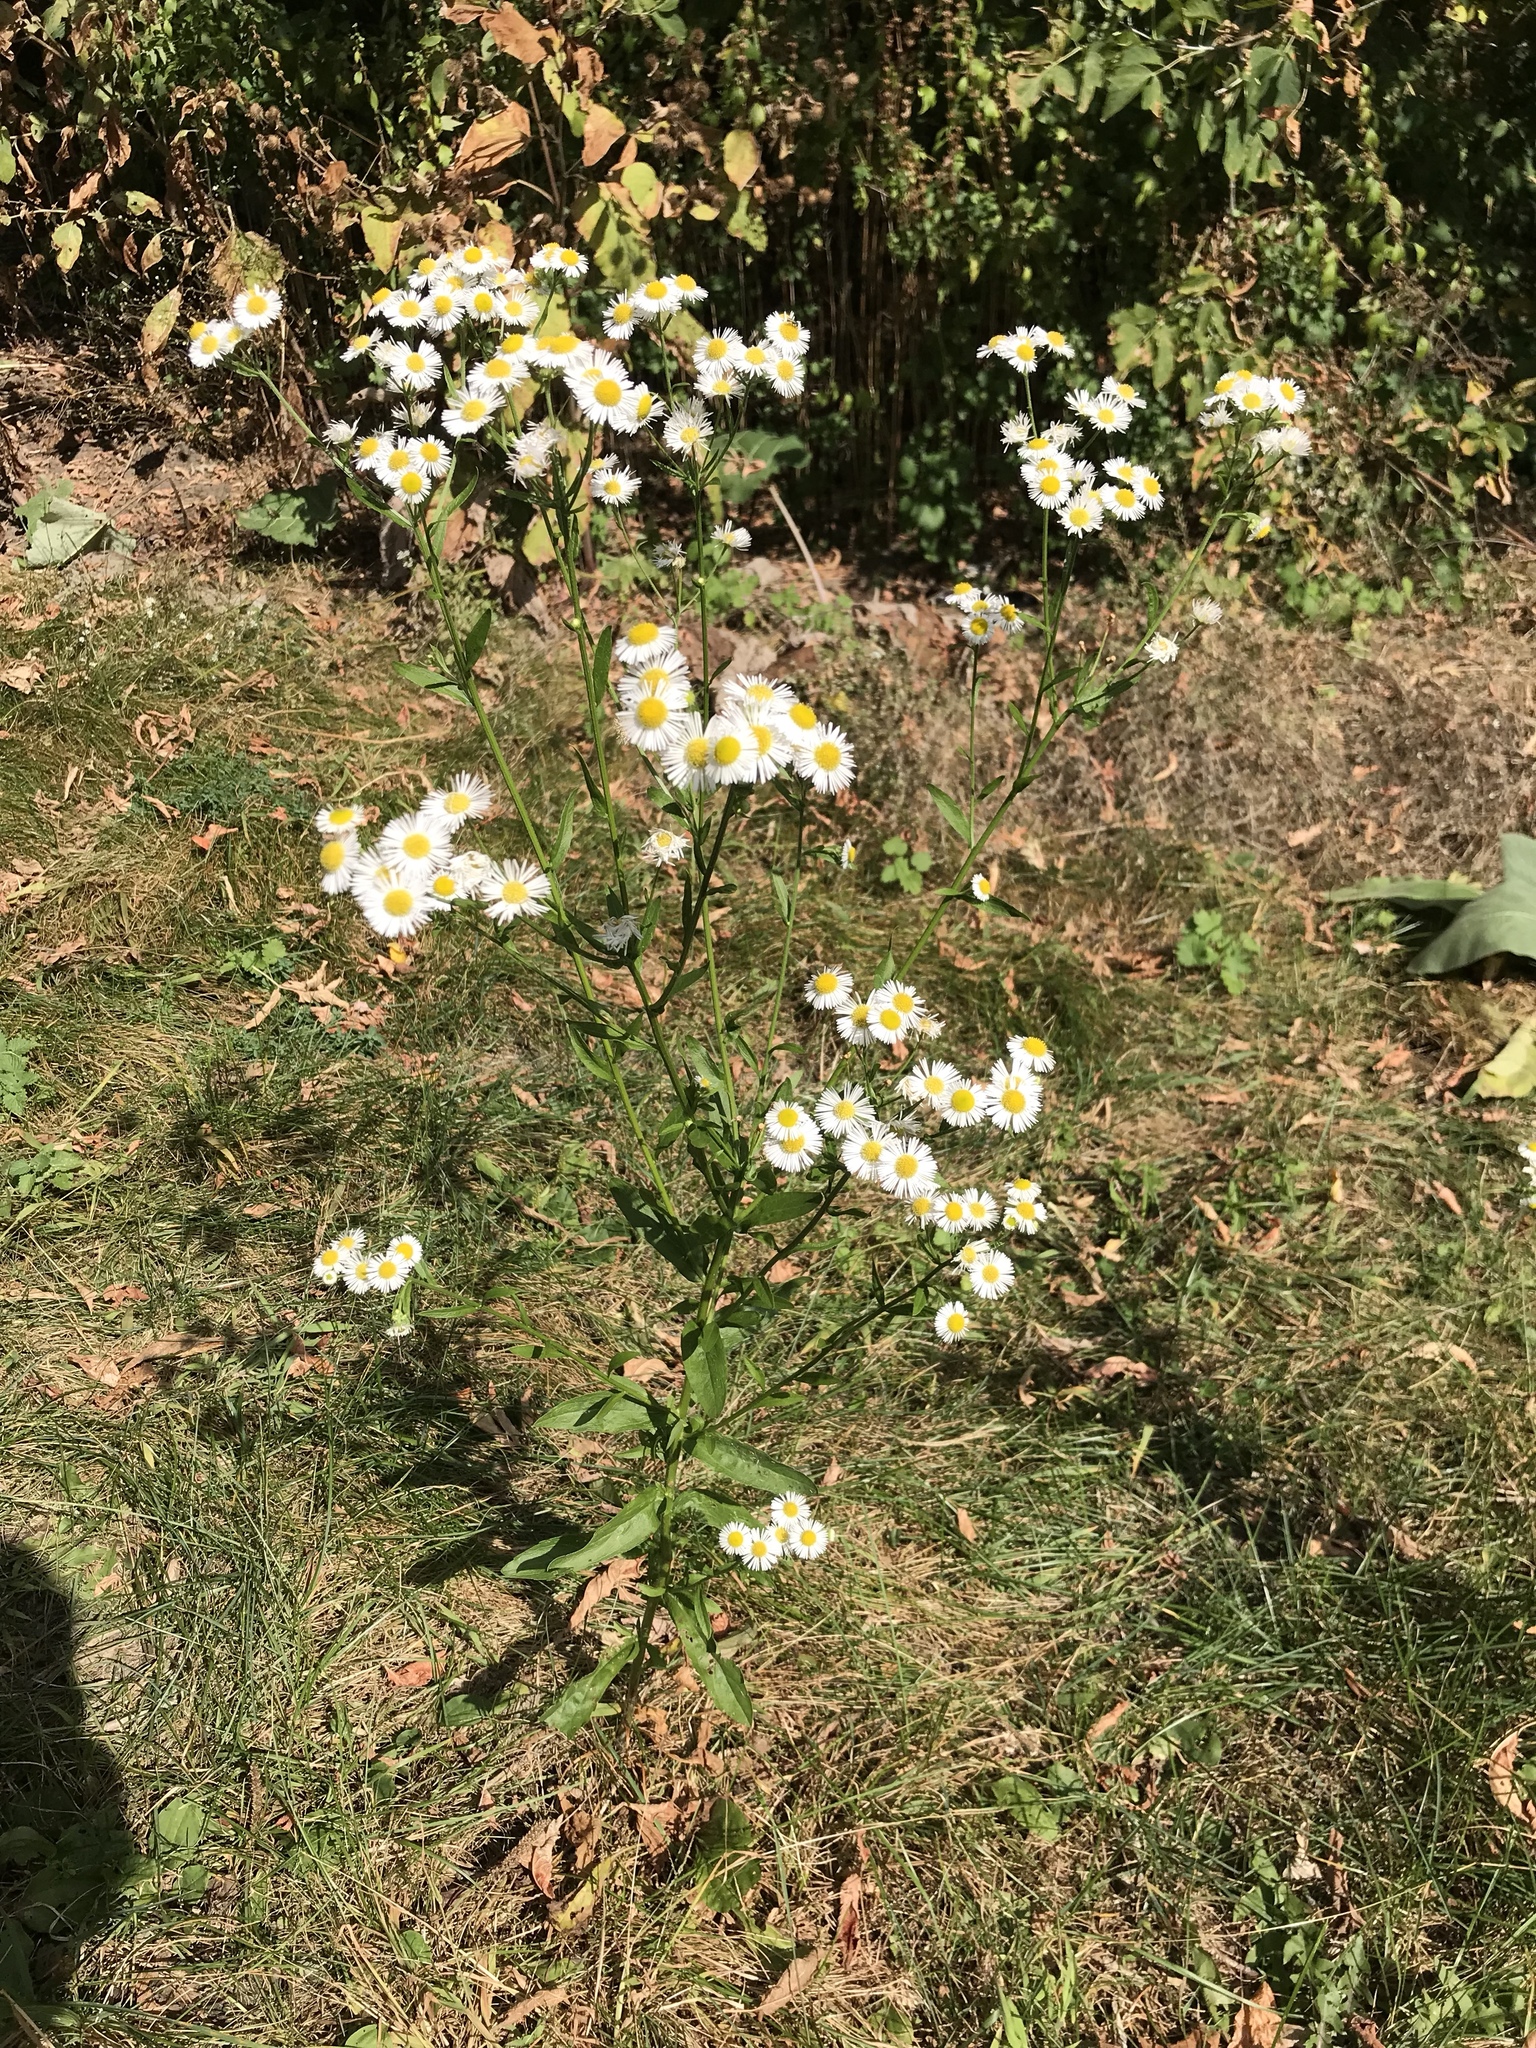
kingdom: Plantae
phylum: Tracheophyta
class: Magnoliopsida
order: Asterales
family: Asteraceae
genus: Erigeron
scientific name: Erigeron annuus
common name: Tall fleabane
